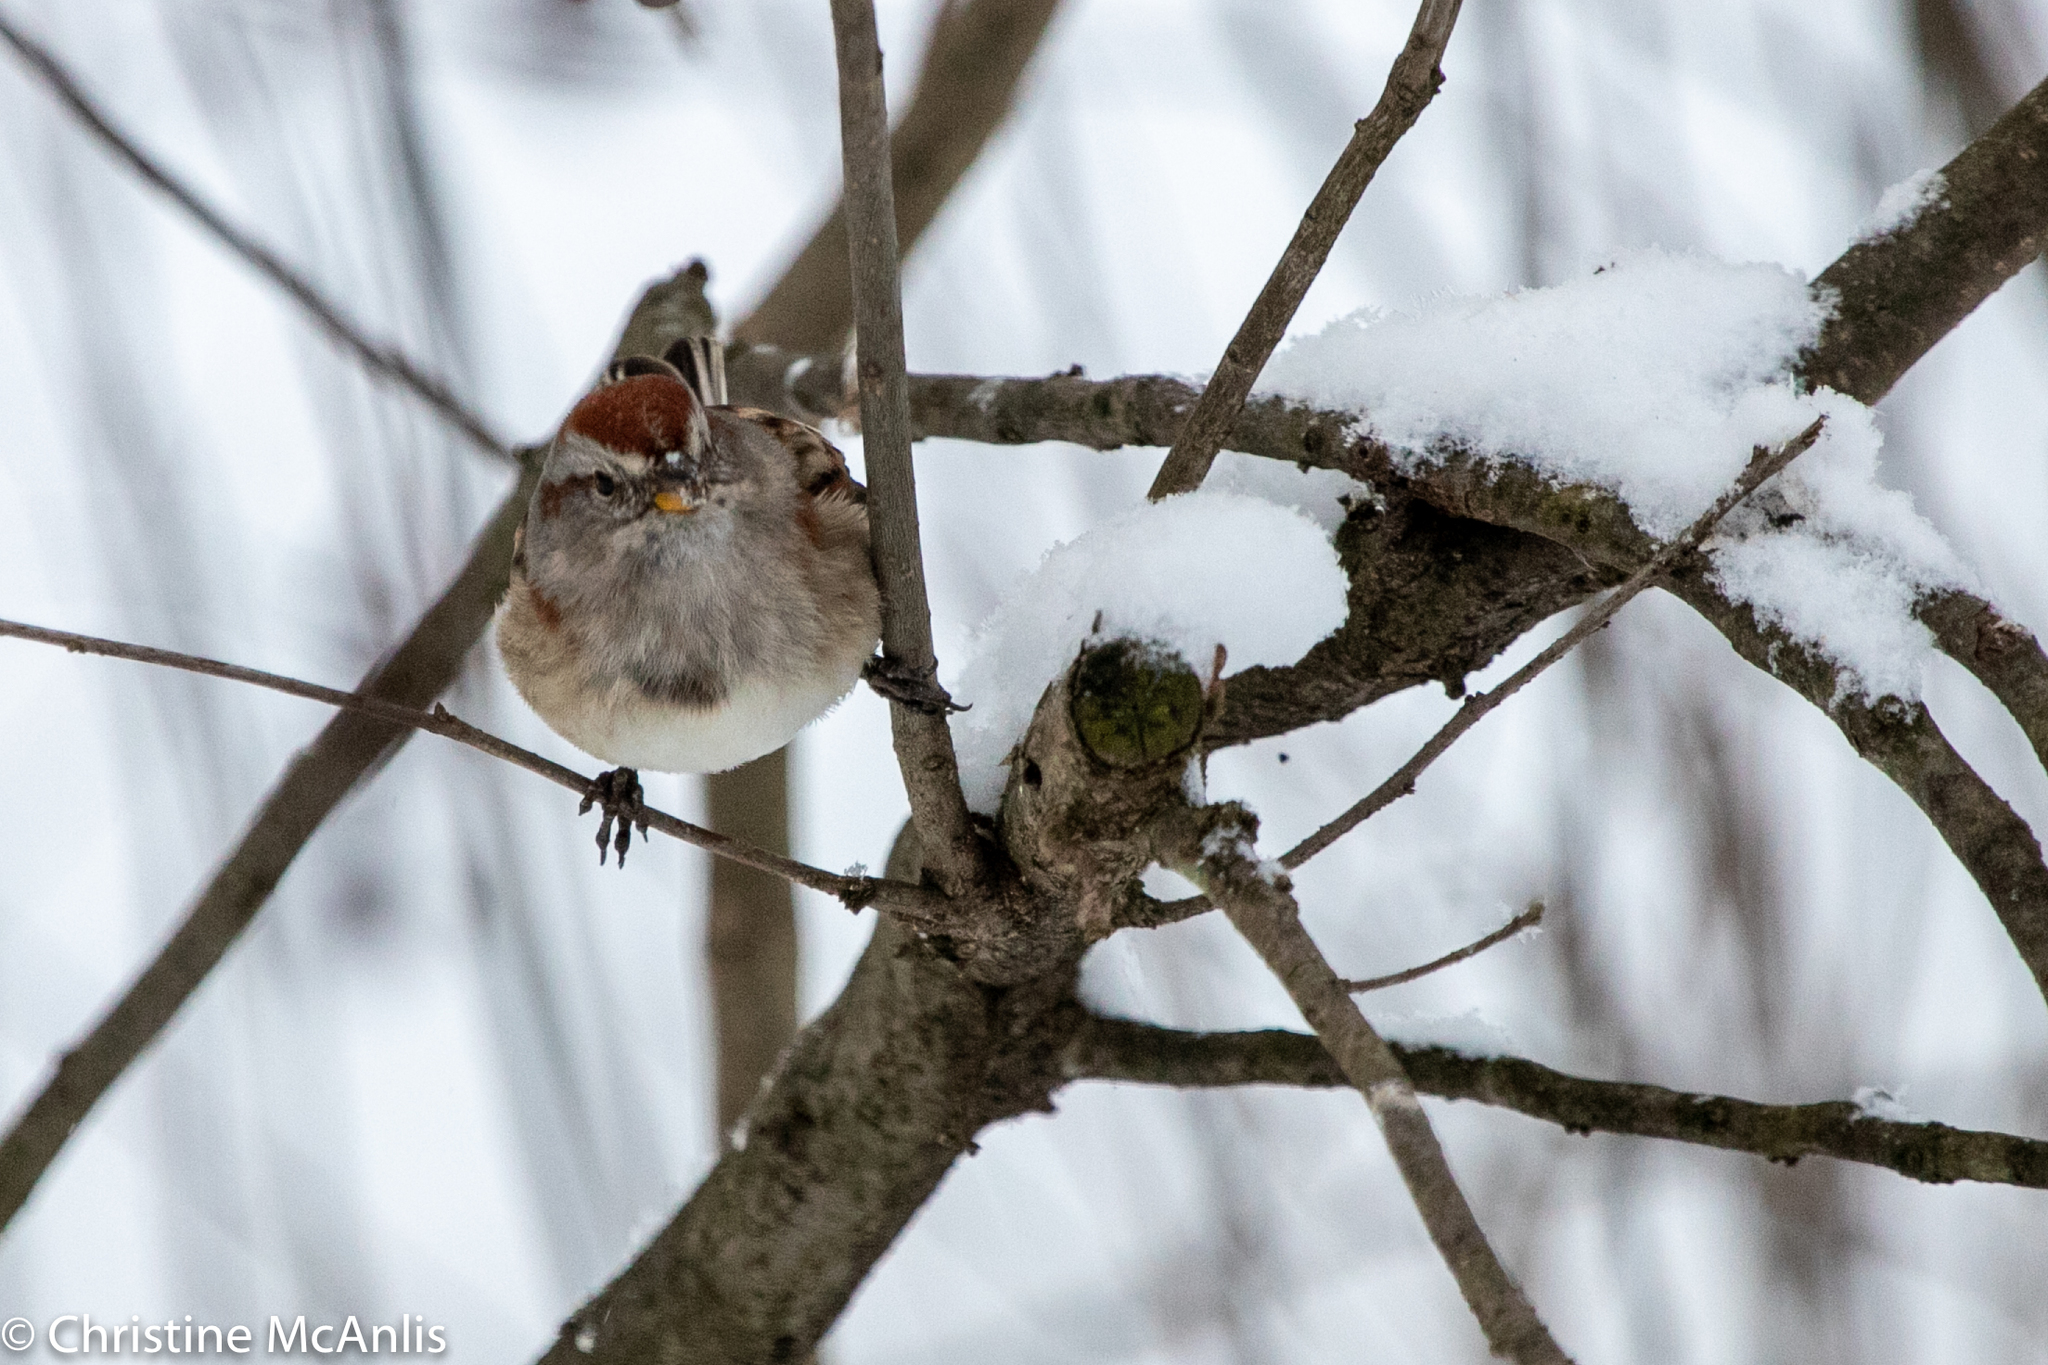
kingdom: Animalia
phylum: Chordata
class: Aves
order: Passeriformes
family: Passerellidae
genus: Spizelloides
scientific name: Spizelloides arborea
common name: American tree sparrow
